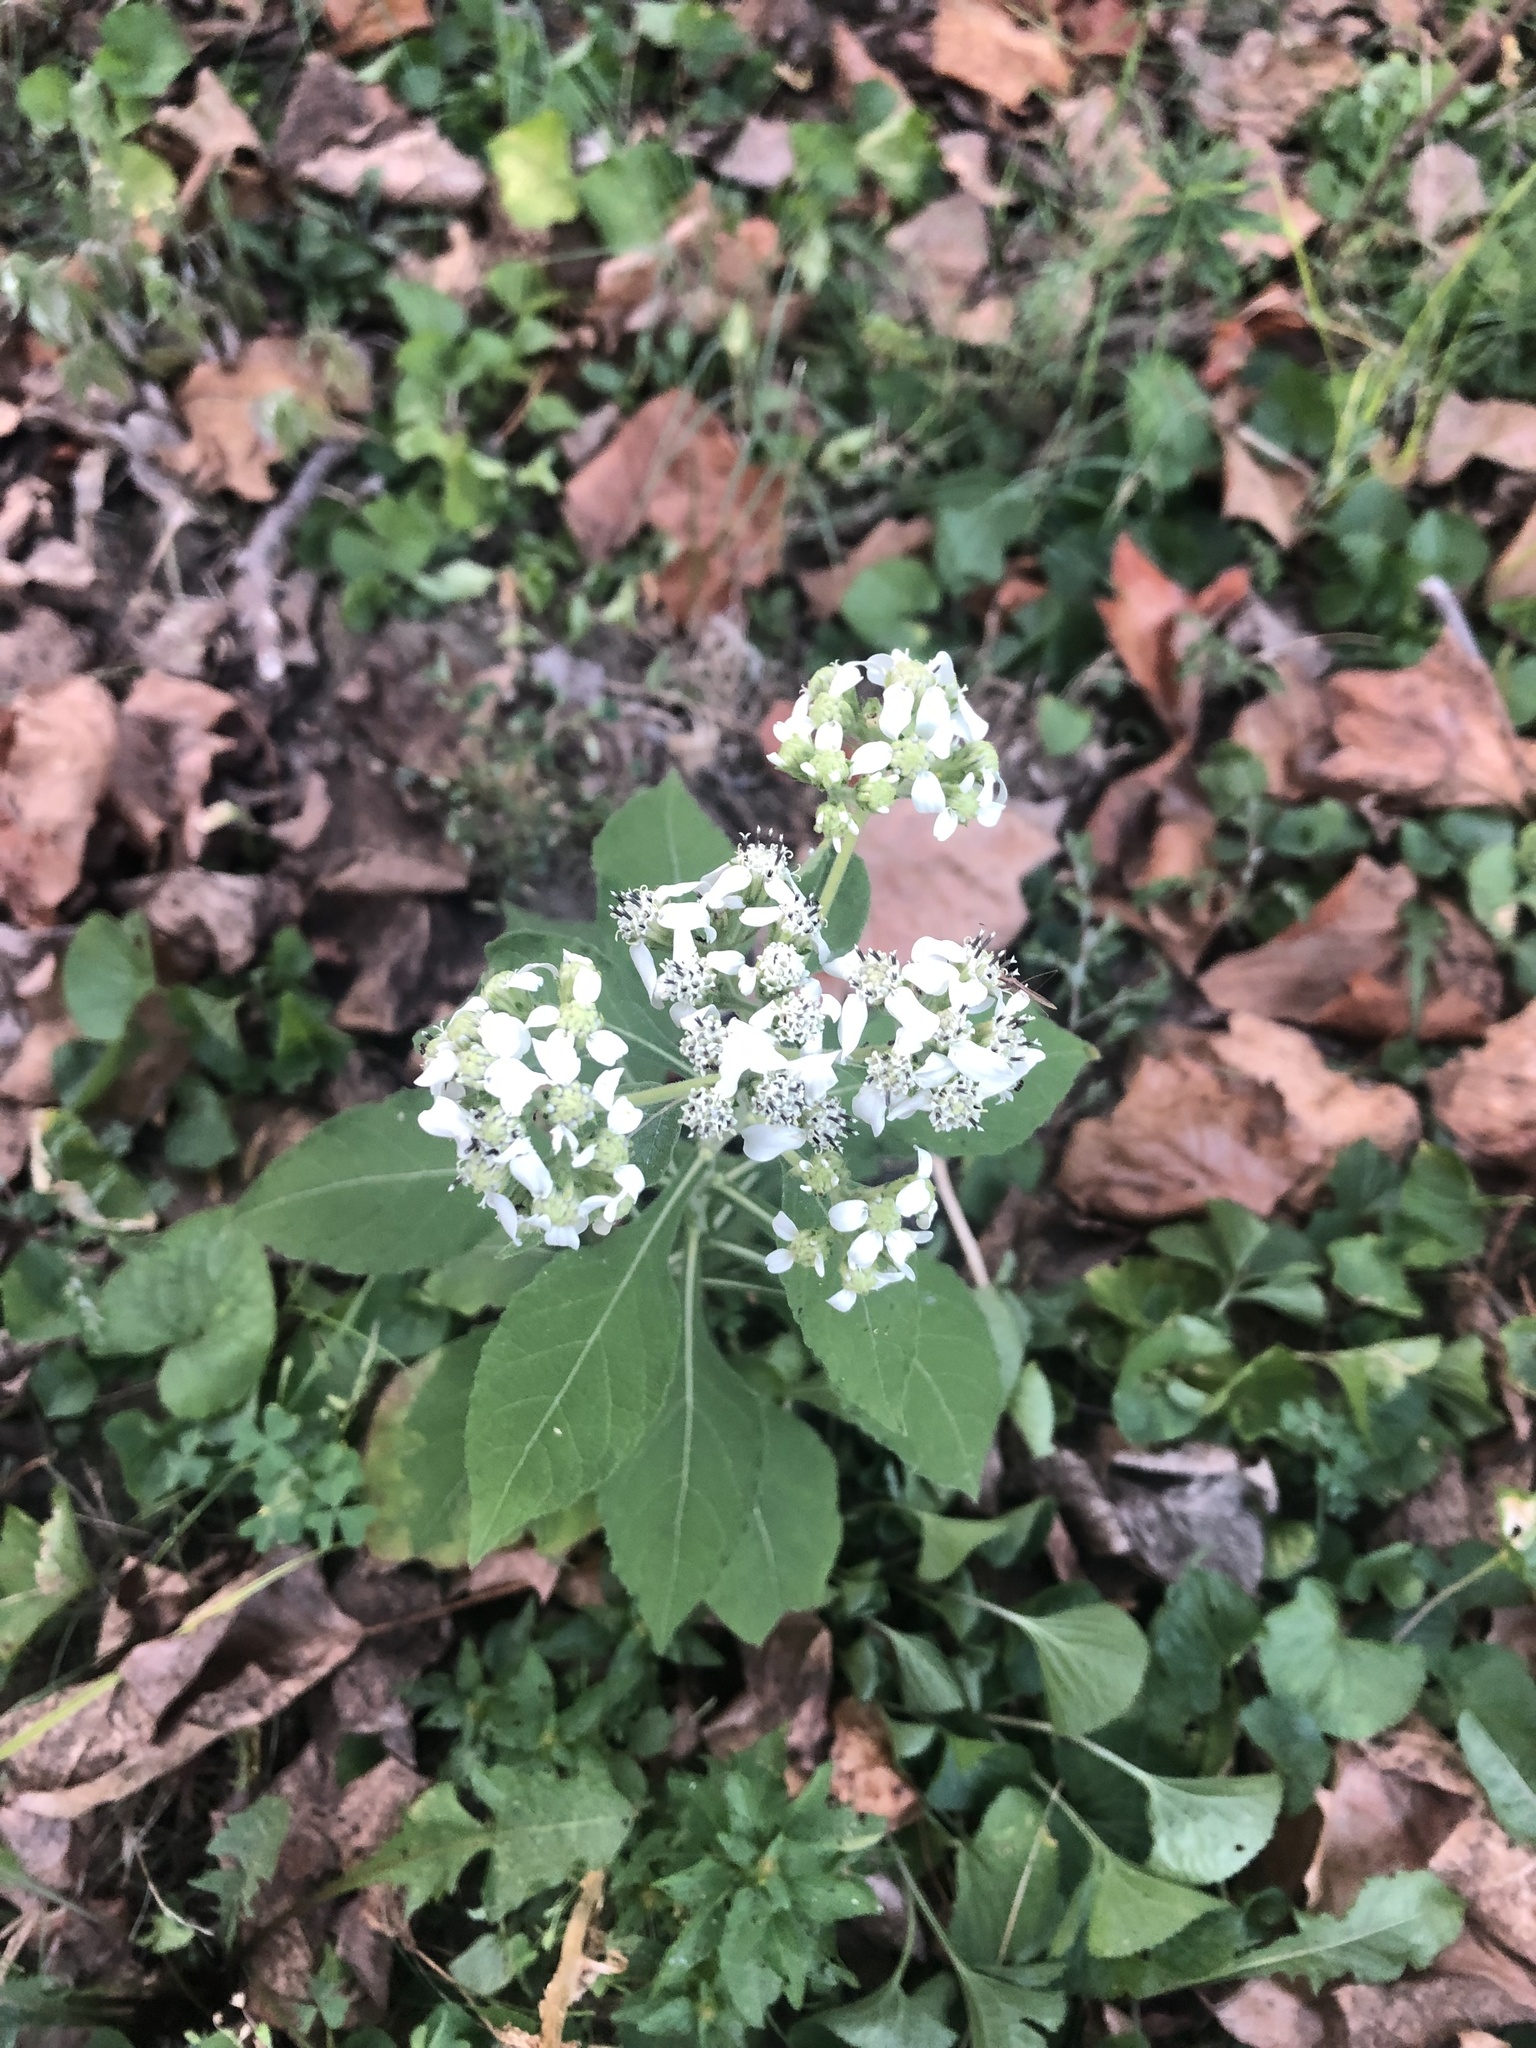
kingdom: Plantae
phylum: Tracheophyta
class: Magnoliopsida
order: Asterales
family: Asteraceae
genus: Verbesina
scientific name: Verbesina virginica
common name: Frostweed
